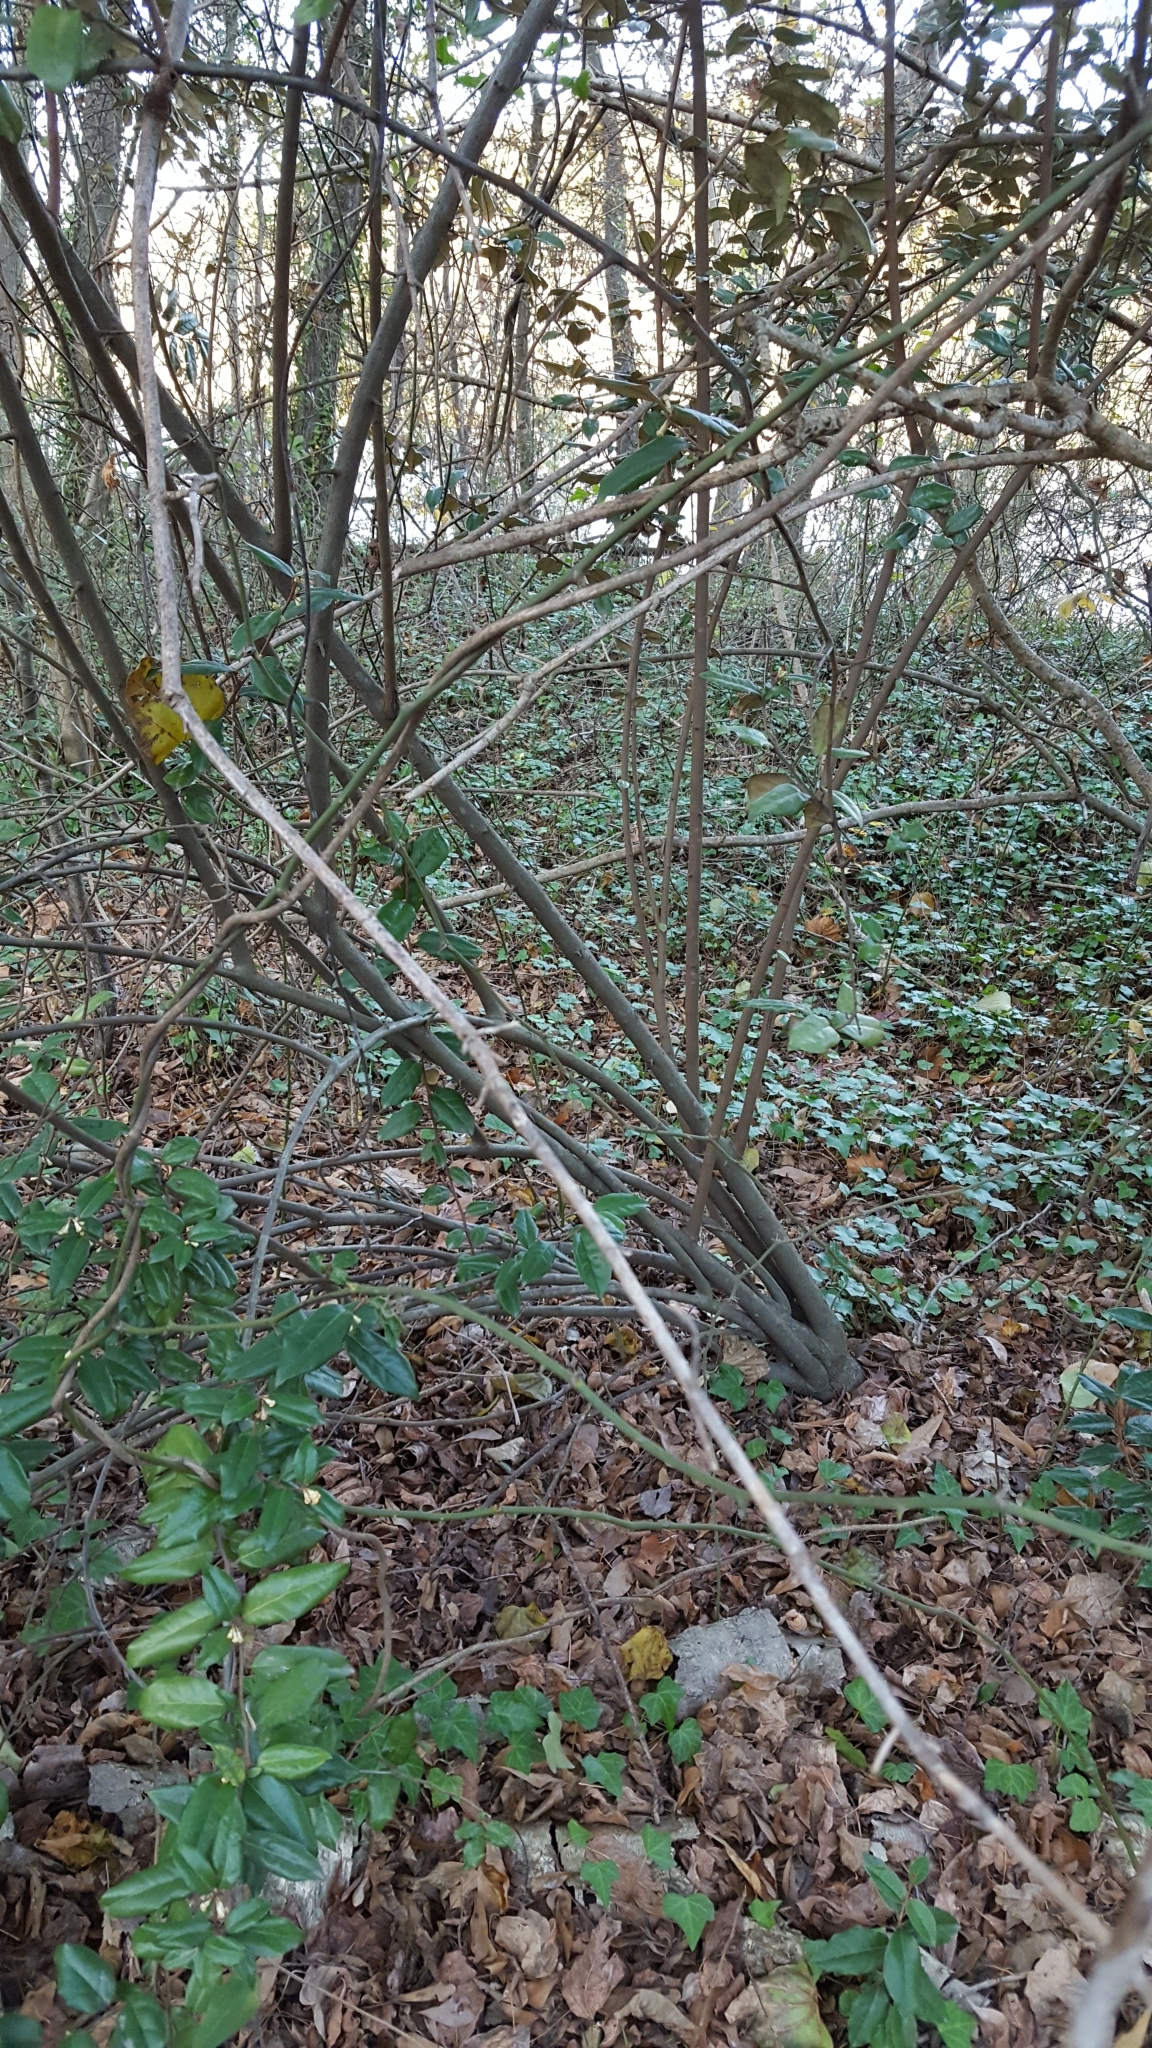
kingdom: Plantae
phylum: Tracheophyta
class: Magnoliopsida
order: Rosales
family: Elaeagnaceae
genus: Elaeagnus
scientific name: Elaeagnus pungens
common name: Spiny oleaster
